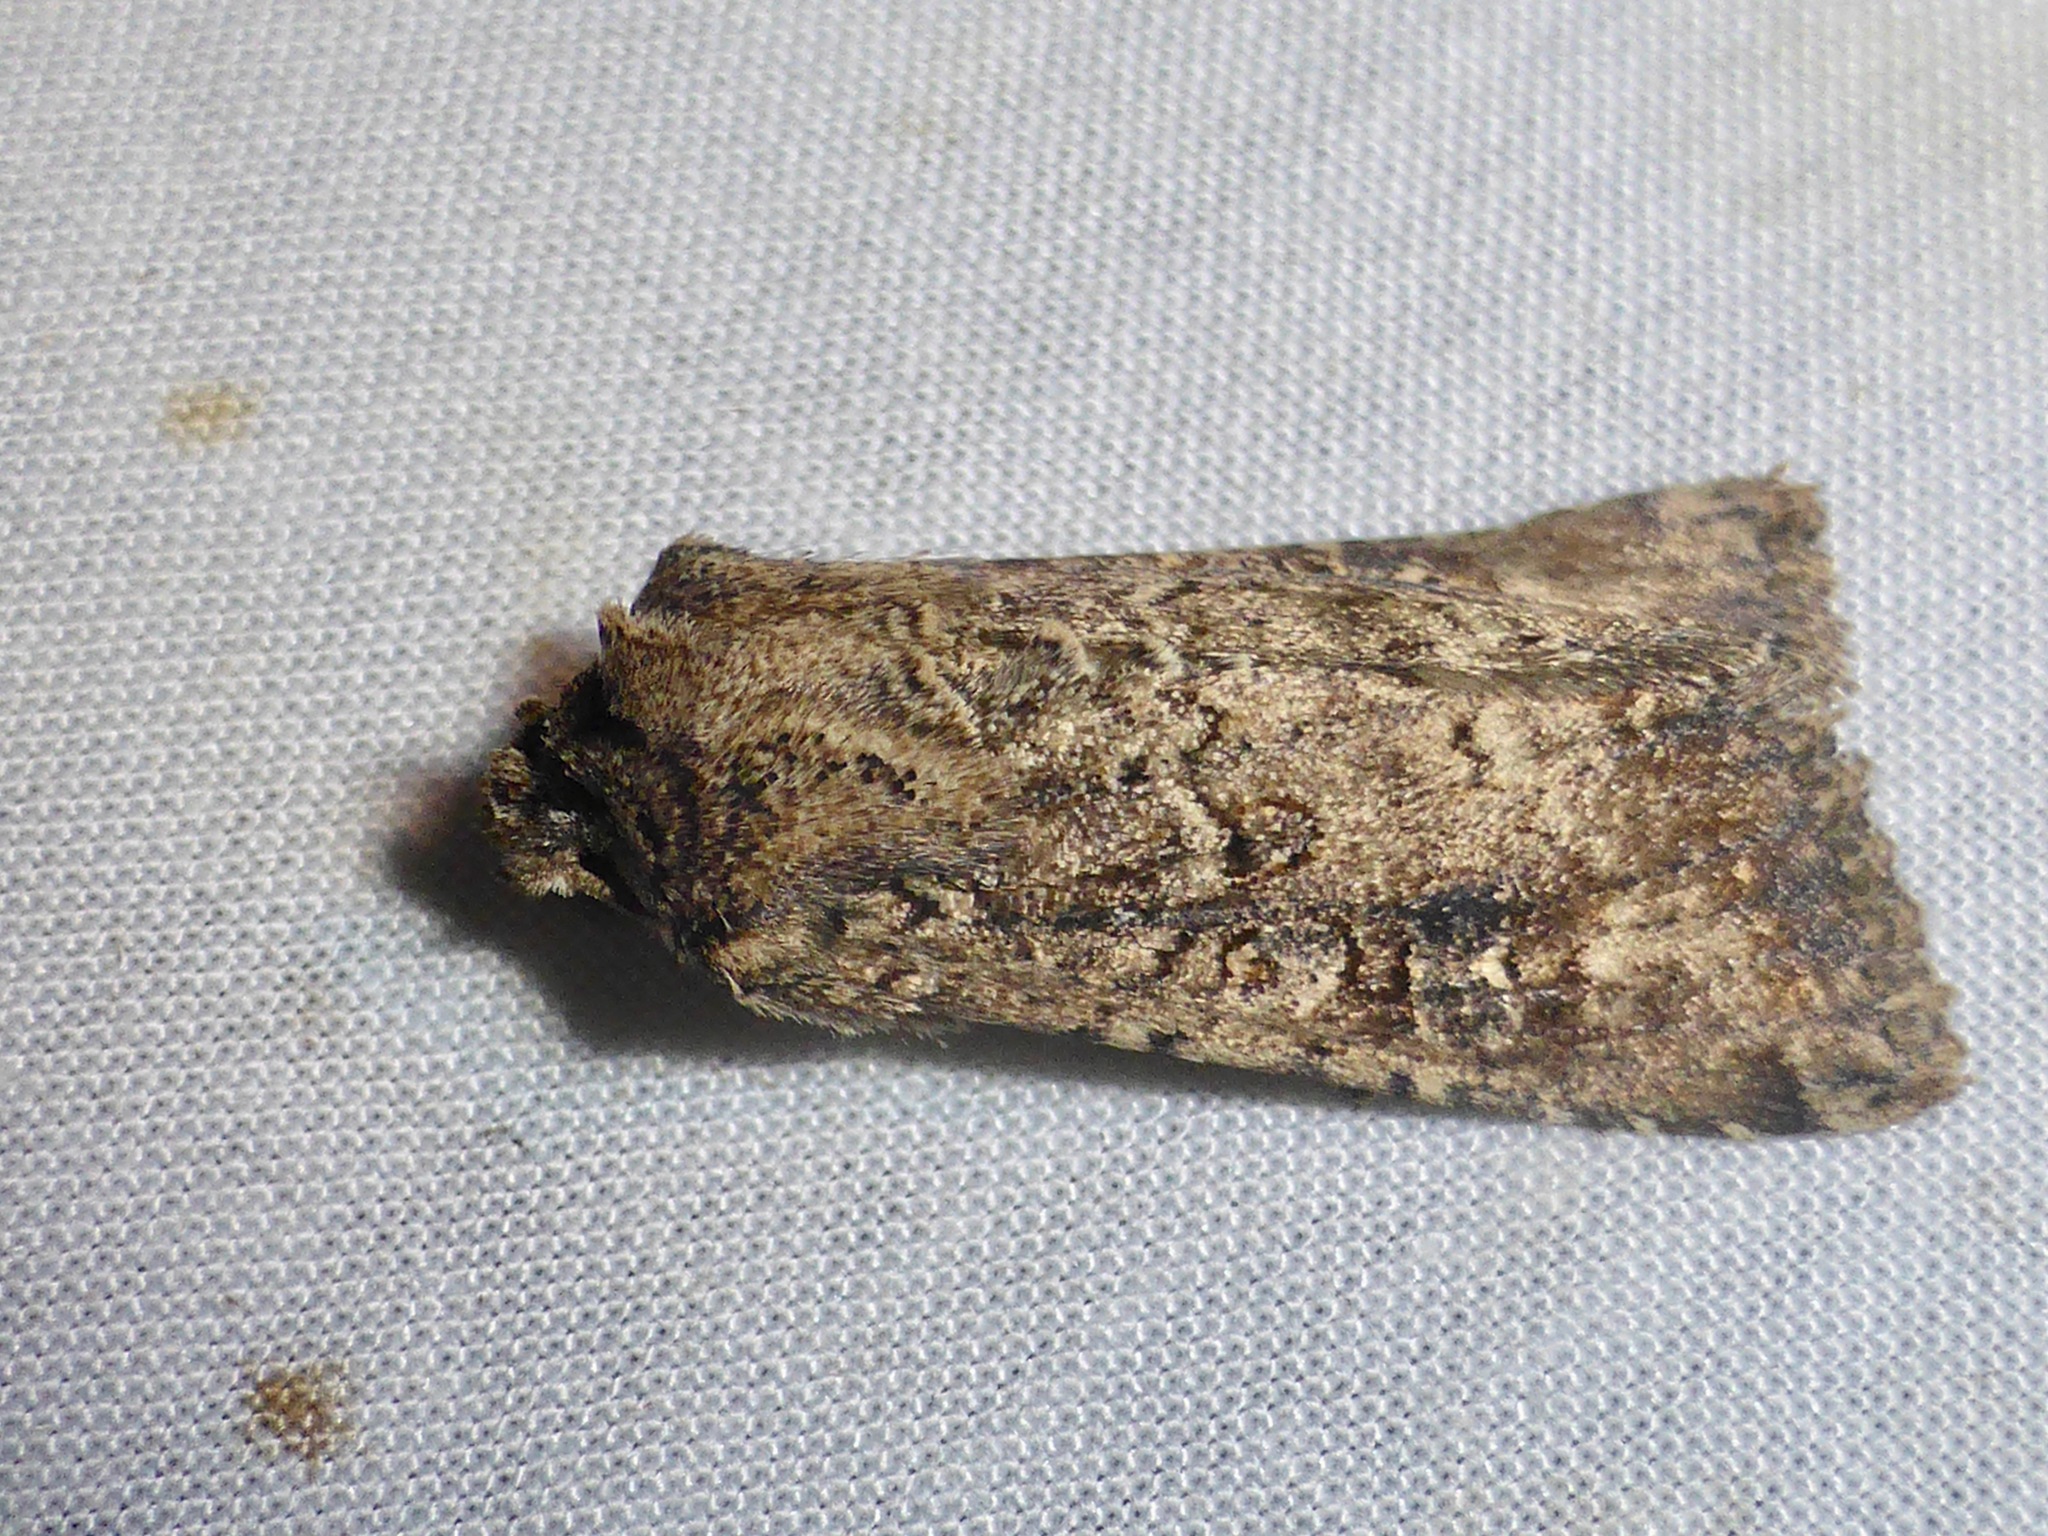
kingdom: Animalia
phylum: Arthropoda
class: Insecta
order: Lepidoptera
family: Noctuidae
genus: Ichneutica
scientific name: Ichneutica morosa
